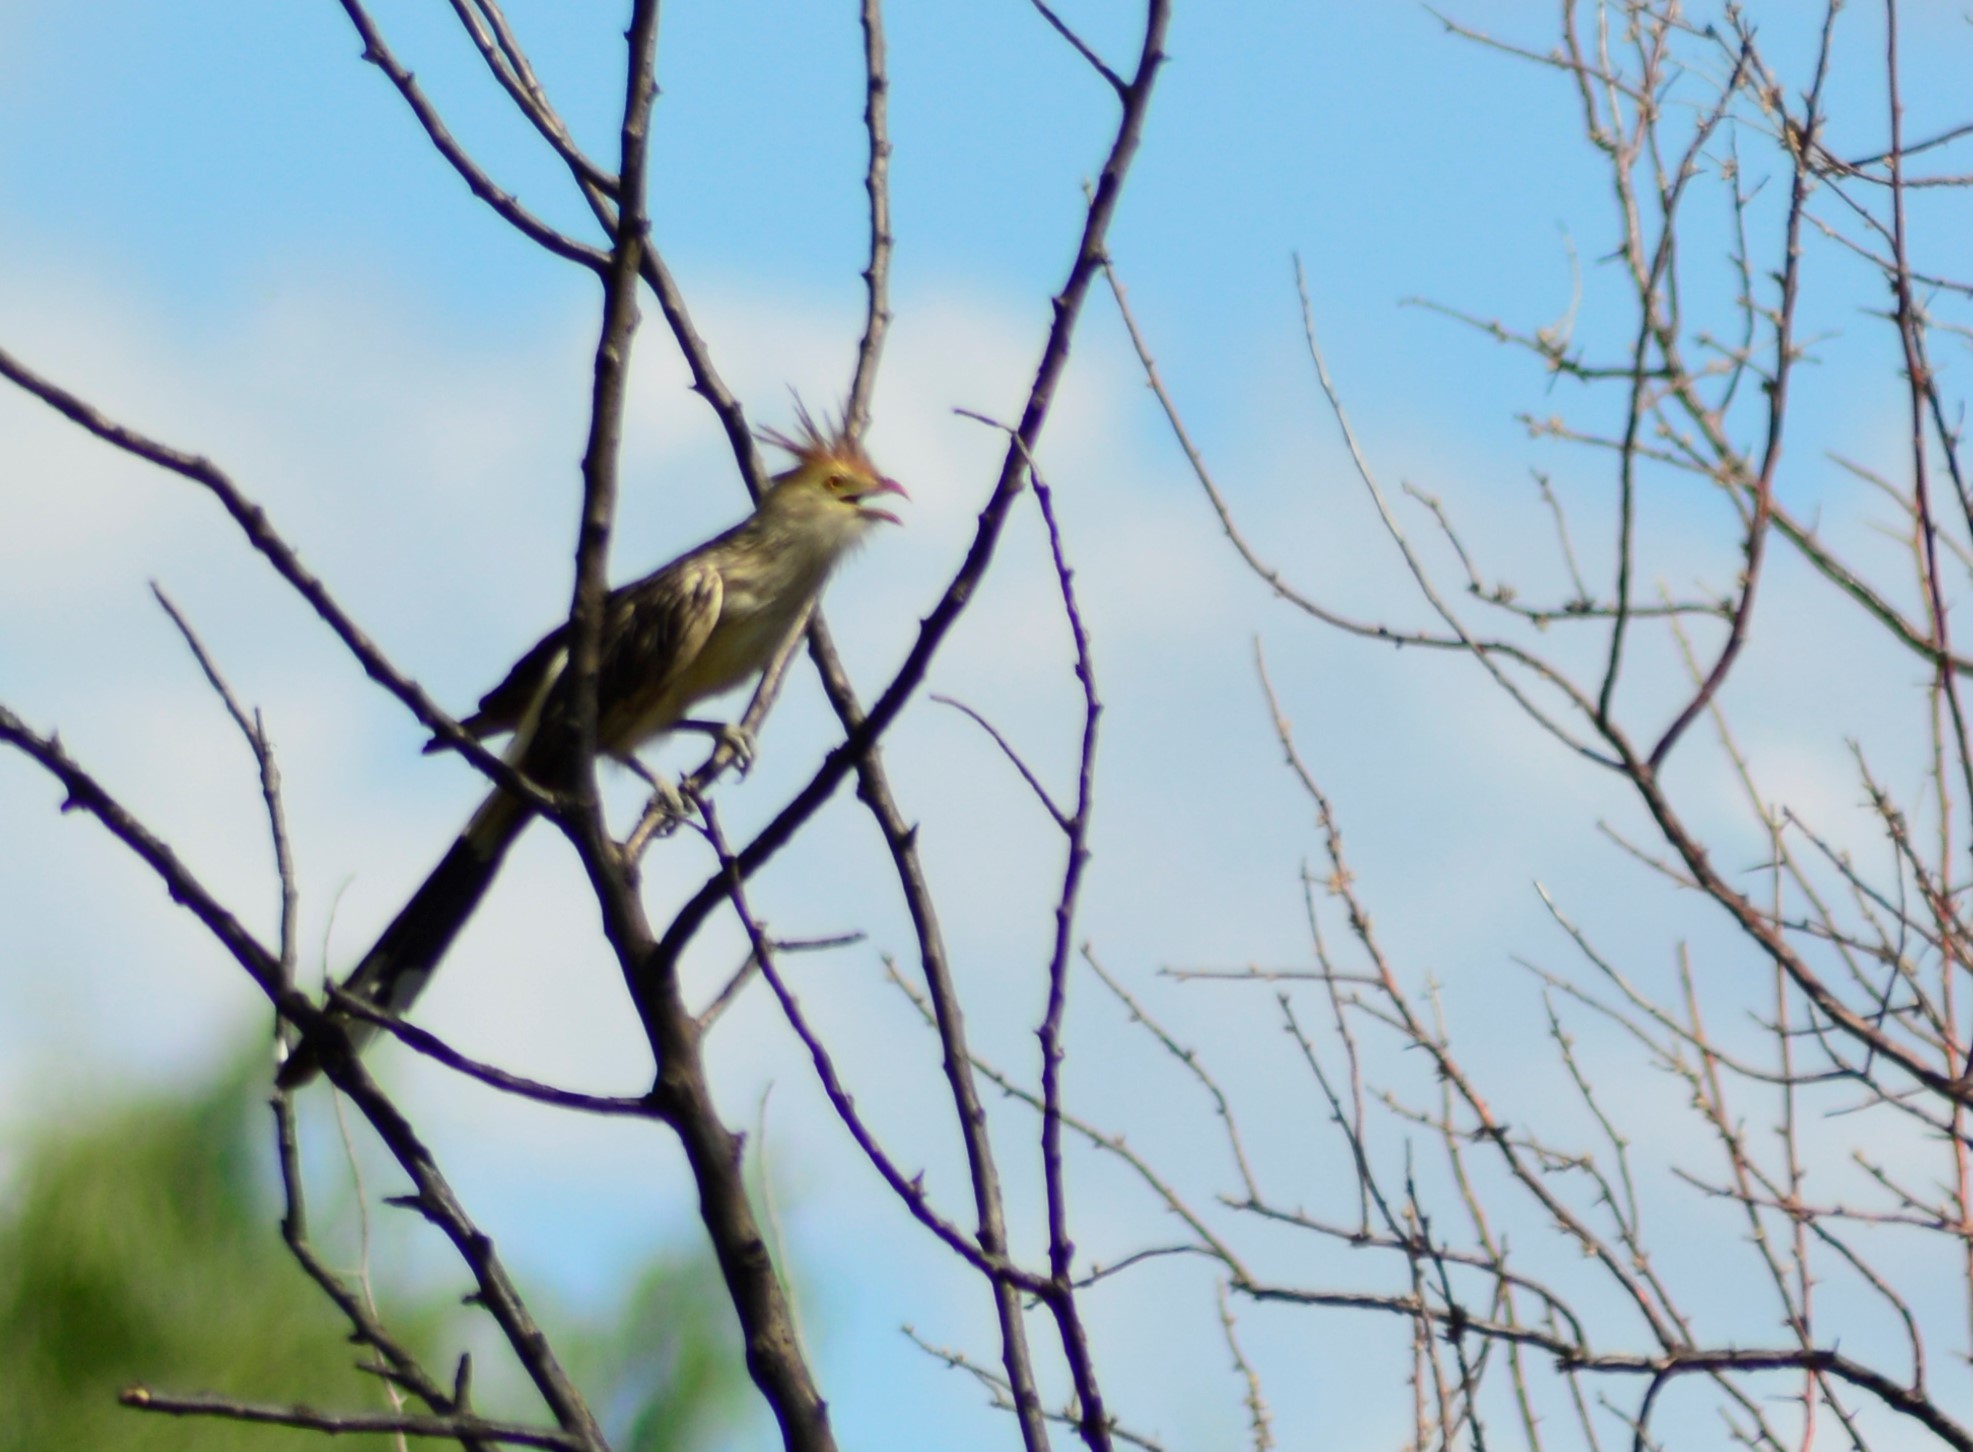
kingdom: Animalia
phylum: Chordata
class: Aves
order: Cuculiformes
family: Cuculidae
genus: Guira
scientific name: Guira guira
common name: Guira cuckoo
